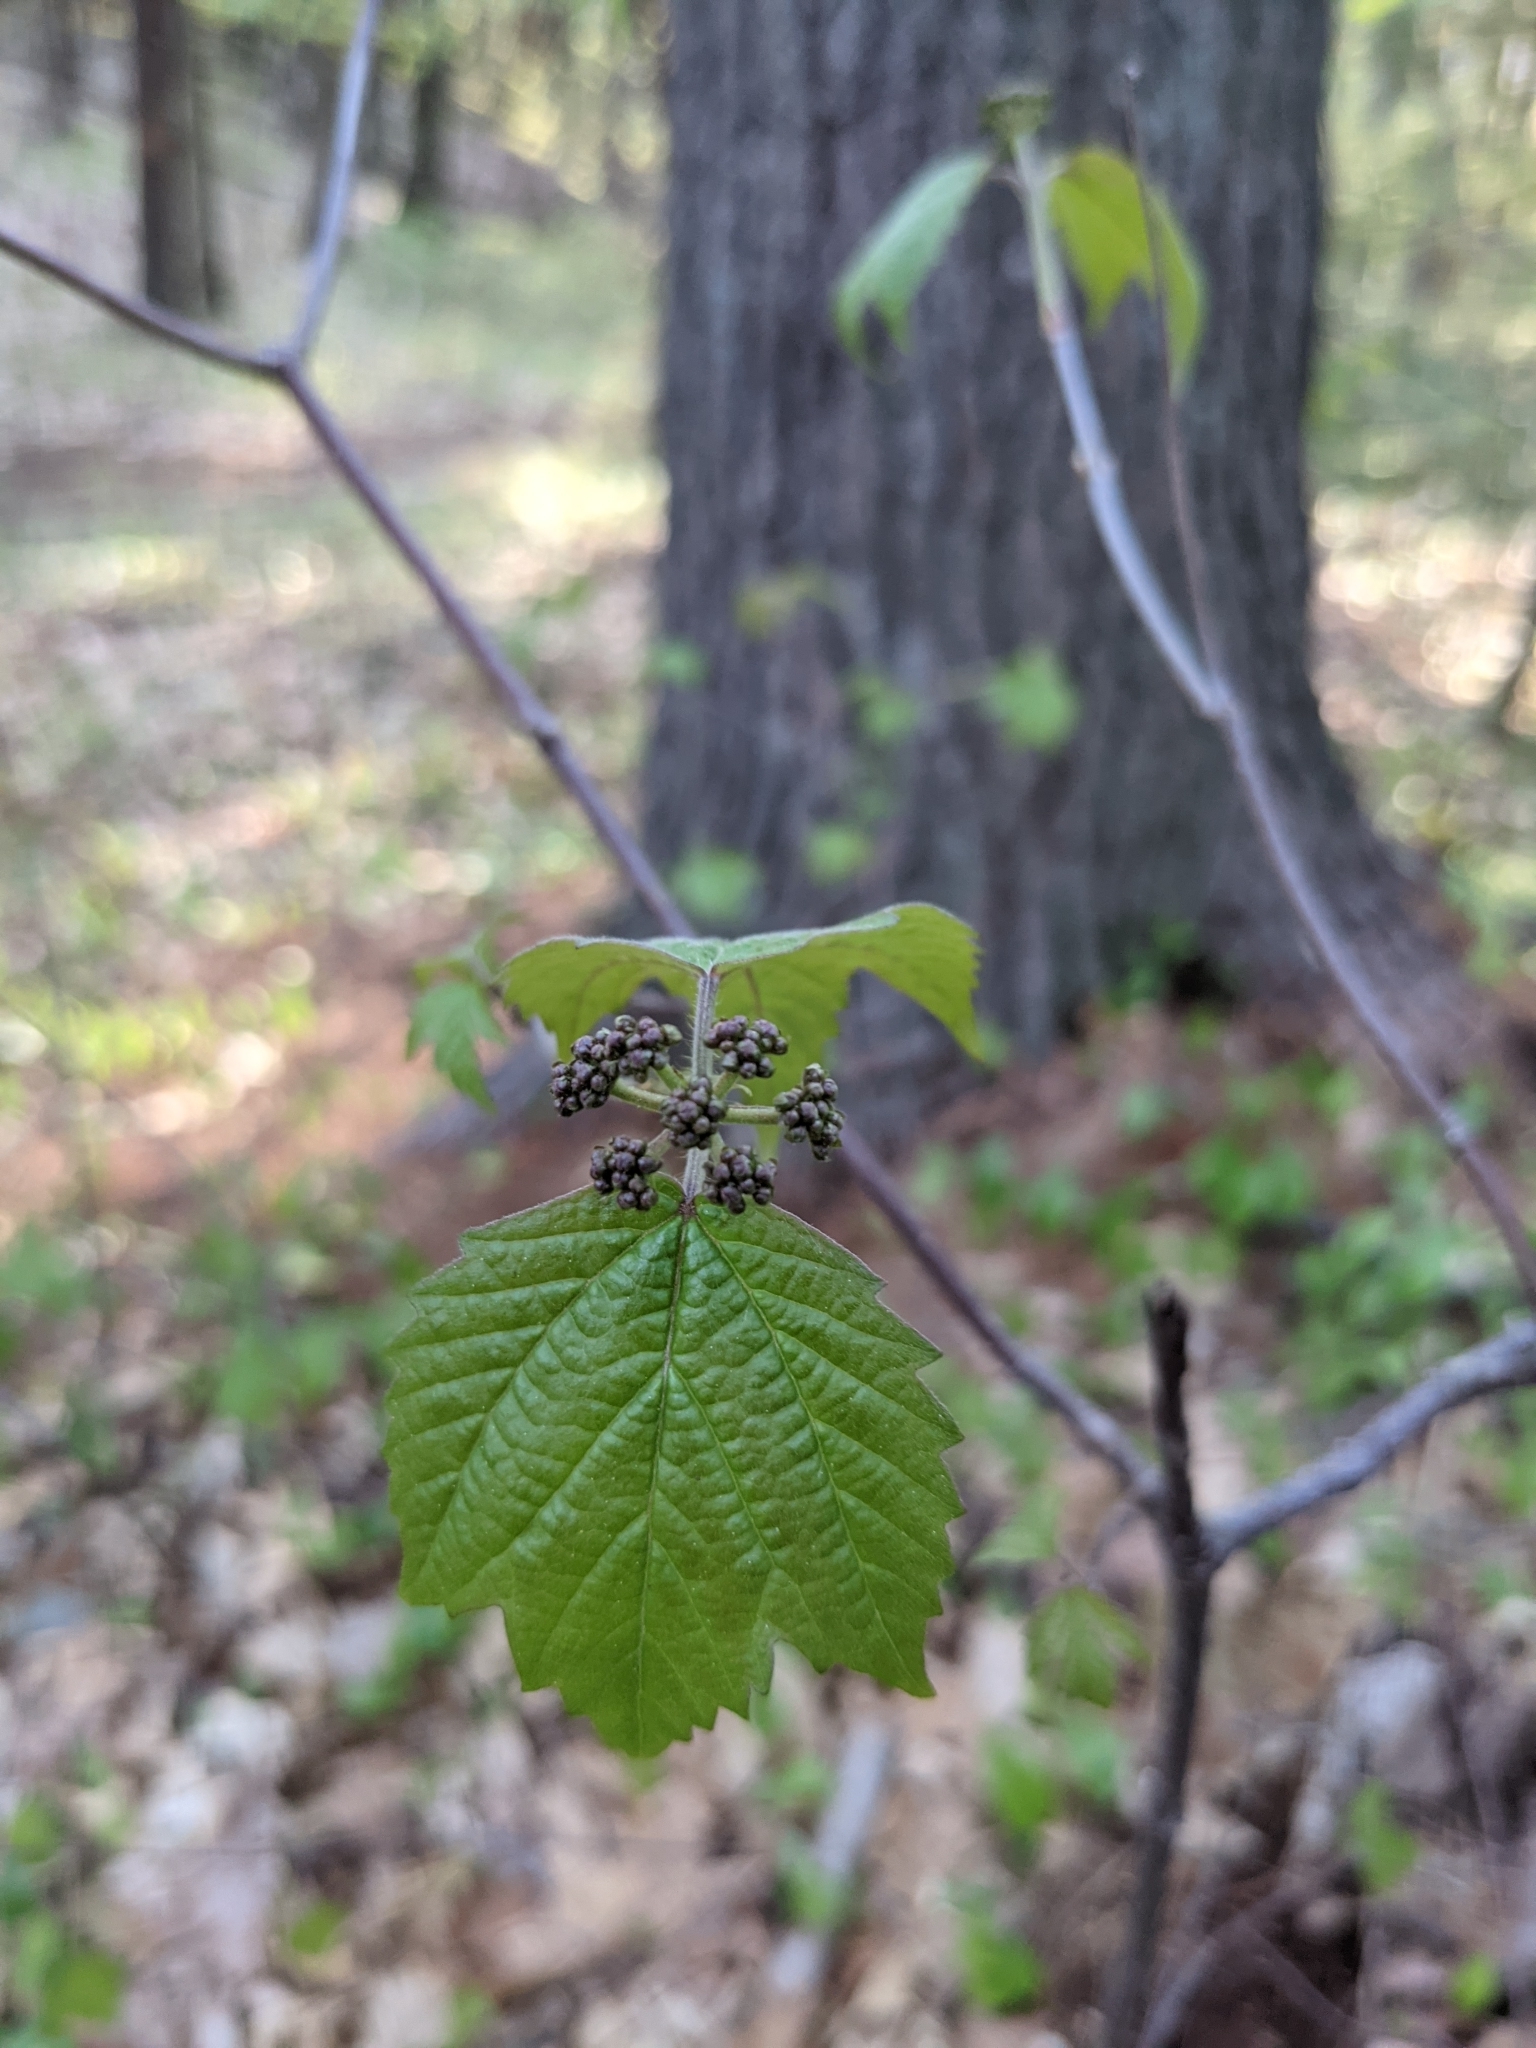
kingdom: Plantae
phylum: Tracheophyta
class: Magnoliopsida
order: Dipsacales
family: Viburnaceae
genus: Viburnum
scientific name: Viburnum acerifolium
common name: Dockmackie
